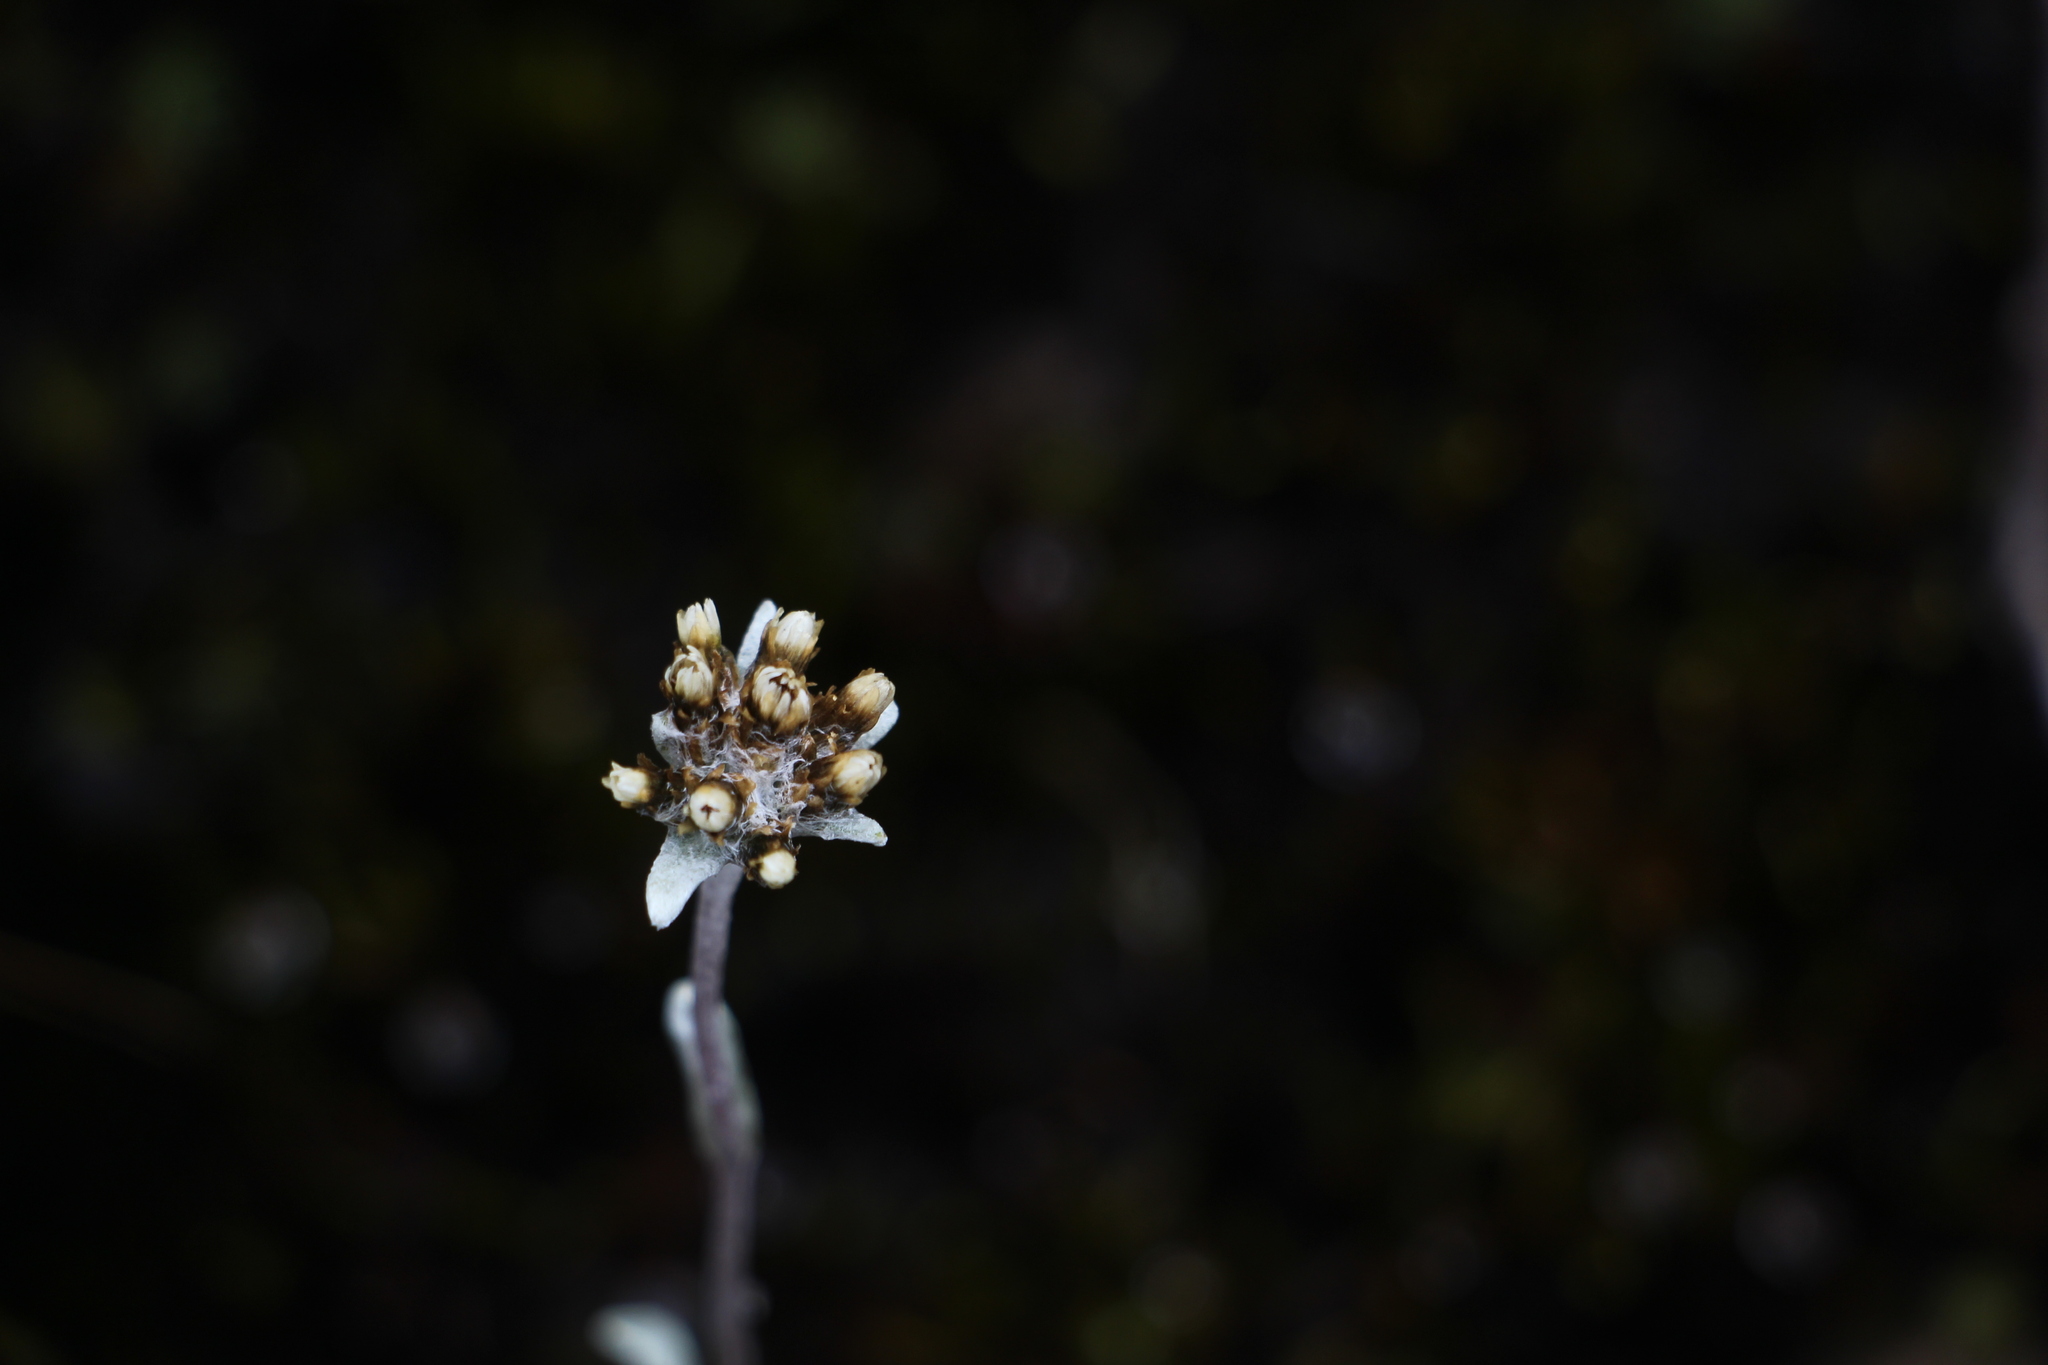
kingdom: Plantae
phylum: Tracheophyta
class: Magnoliopsida
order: Asterales
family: Asteraceae
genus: Pseudognaphalium
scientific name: Pseudognaphalium paramorum
